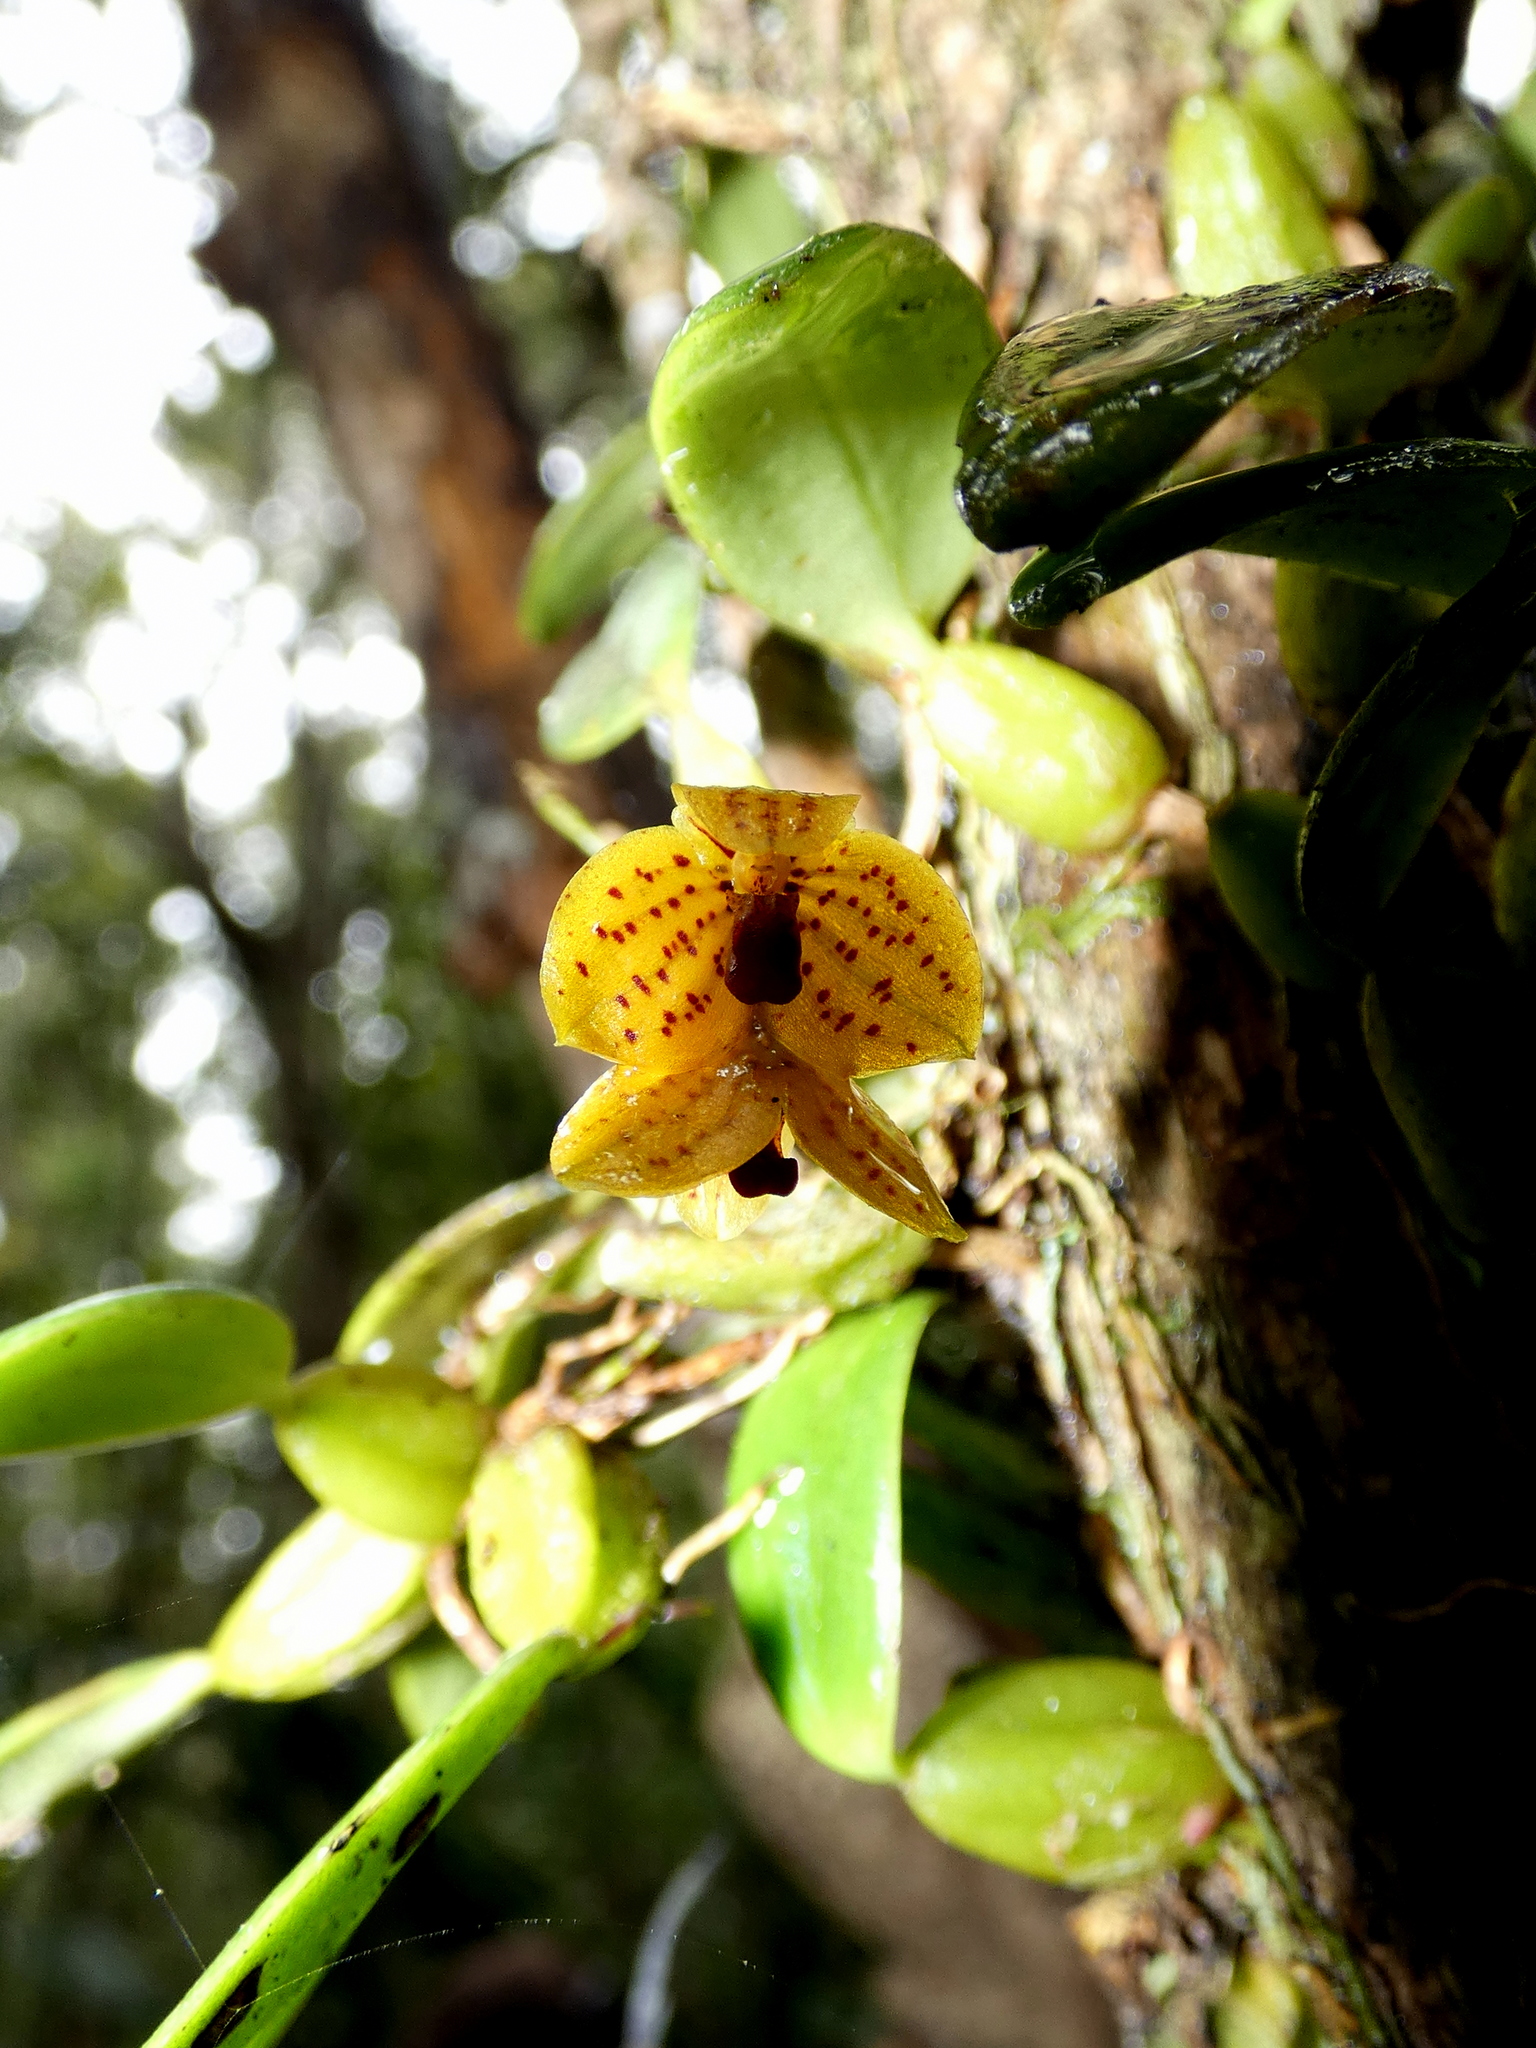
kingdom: Plantae
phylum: Tracheophyta
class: Liliopsida
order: Asparagales
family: Orchidaceae
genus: Bulbophyllum
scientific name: Bulbophyllum analamazoatrae
